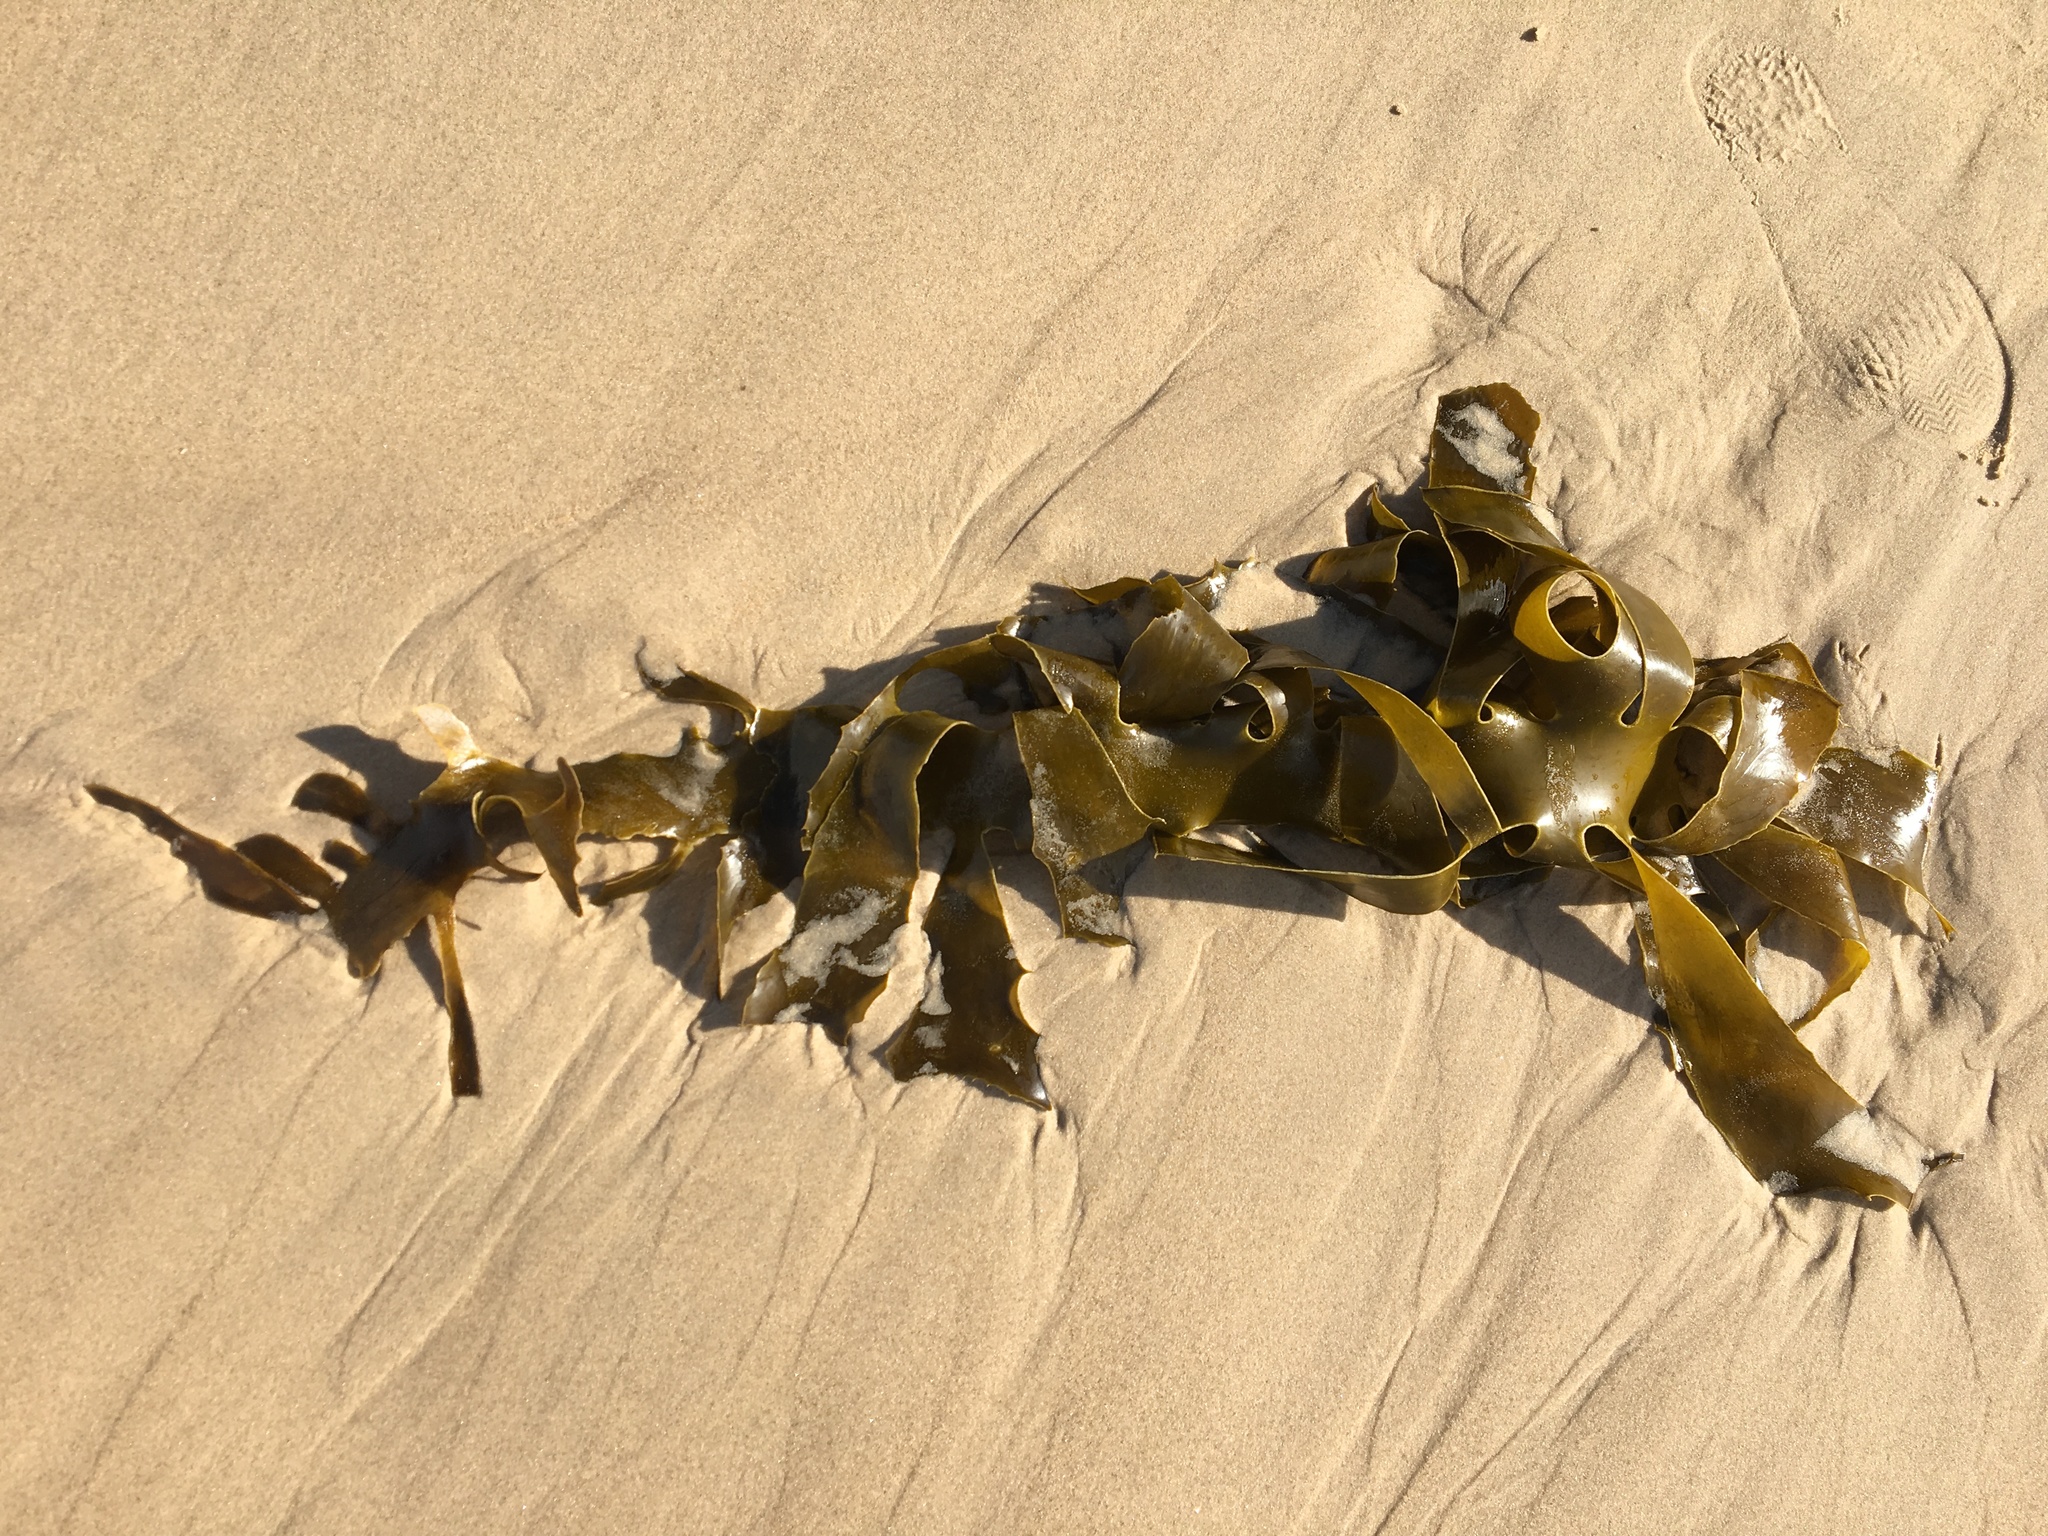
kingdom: Chromista
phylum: Ochrophyta
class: Phaeophyceae
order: Laminariales
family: Lessoniaceae
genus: Ecklonia
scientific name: Ecklonia radiata
